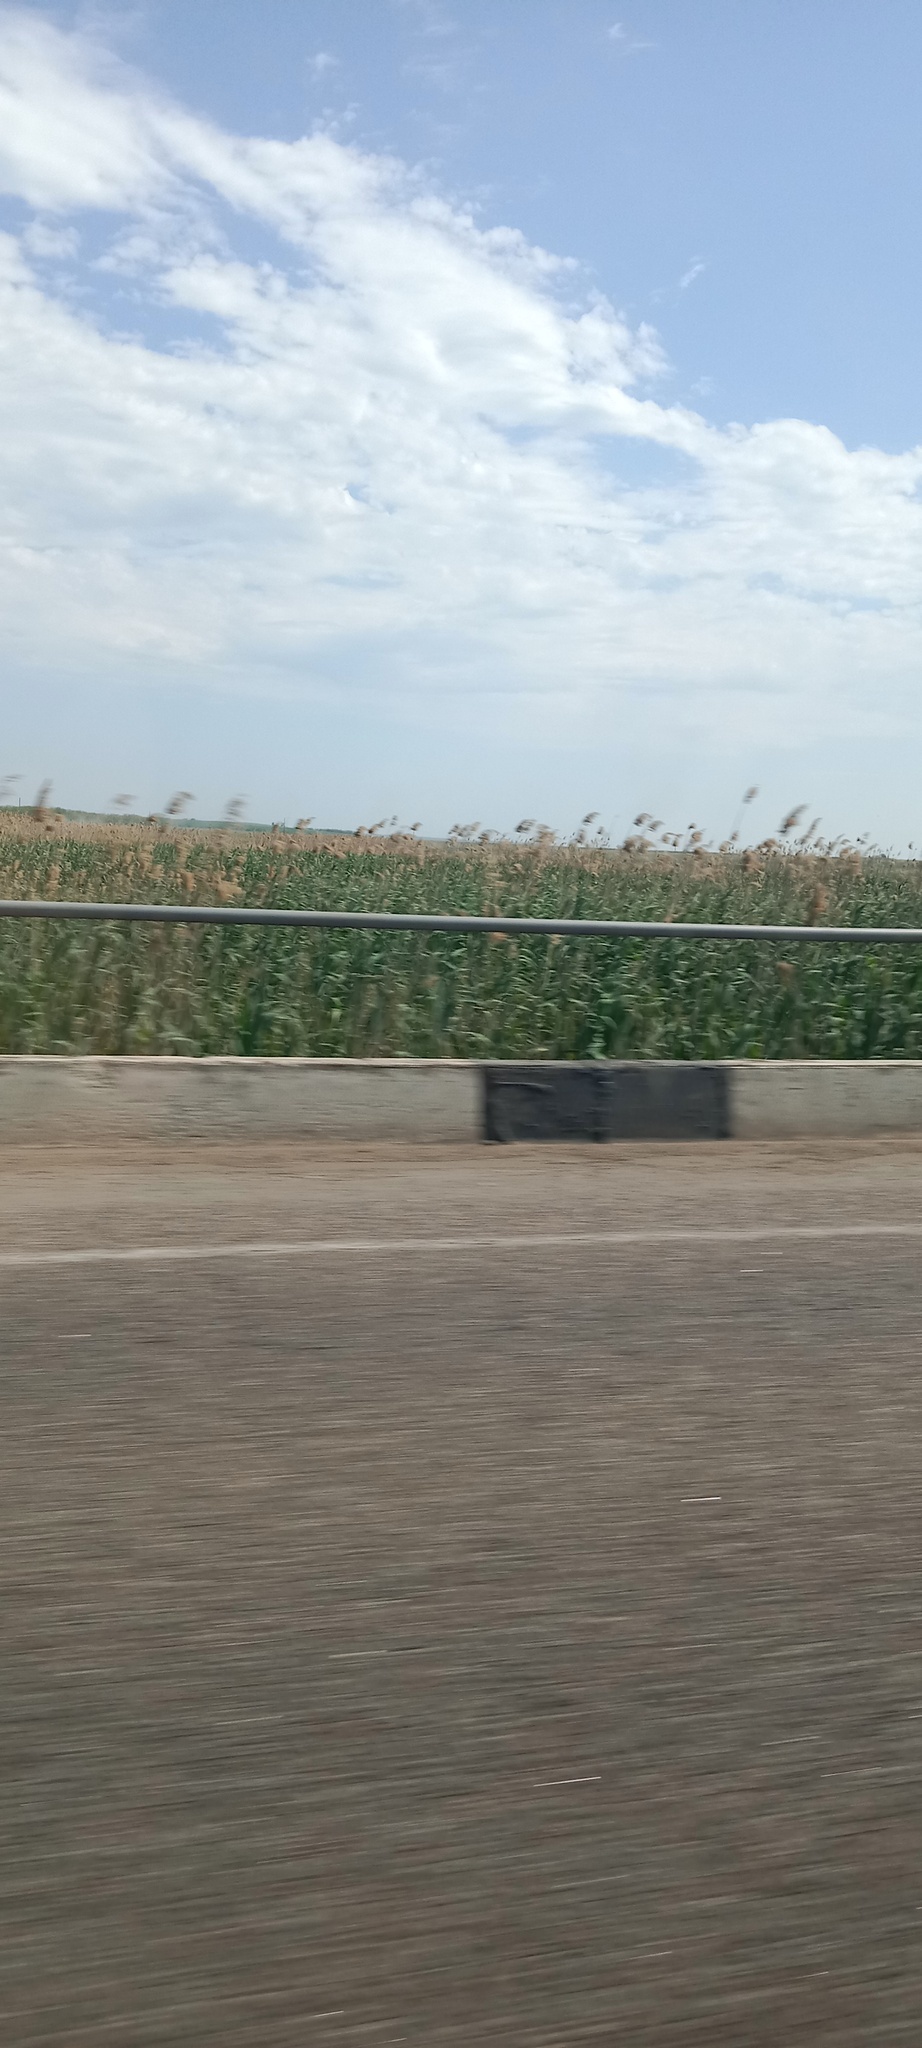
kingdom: Plantae
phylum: Tracheophyta
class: Liliopsida
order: Poales
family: Poaceae
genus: Phragmites
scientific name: Phragmites australis
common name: Common reed
